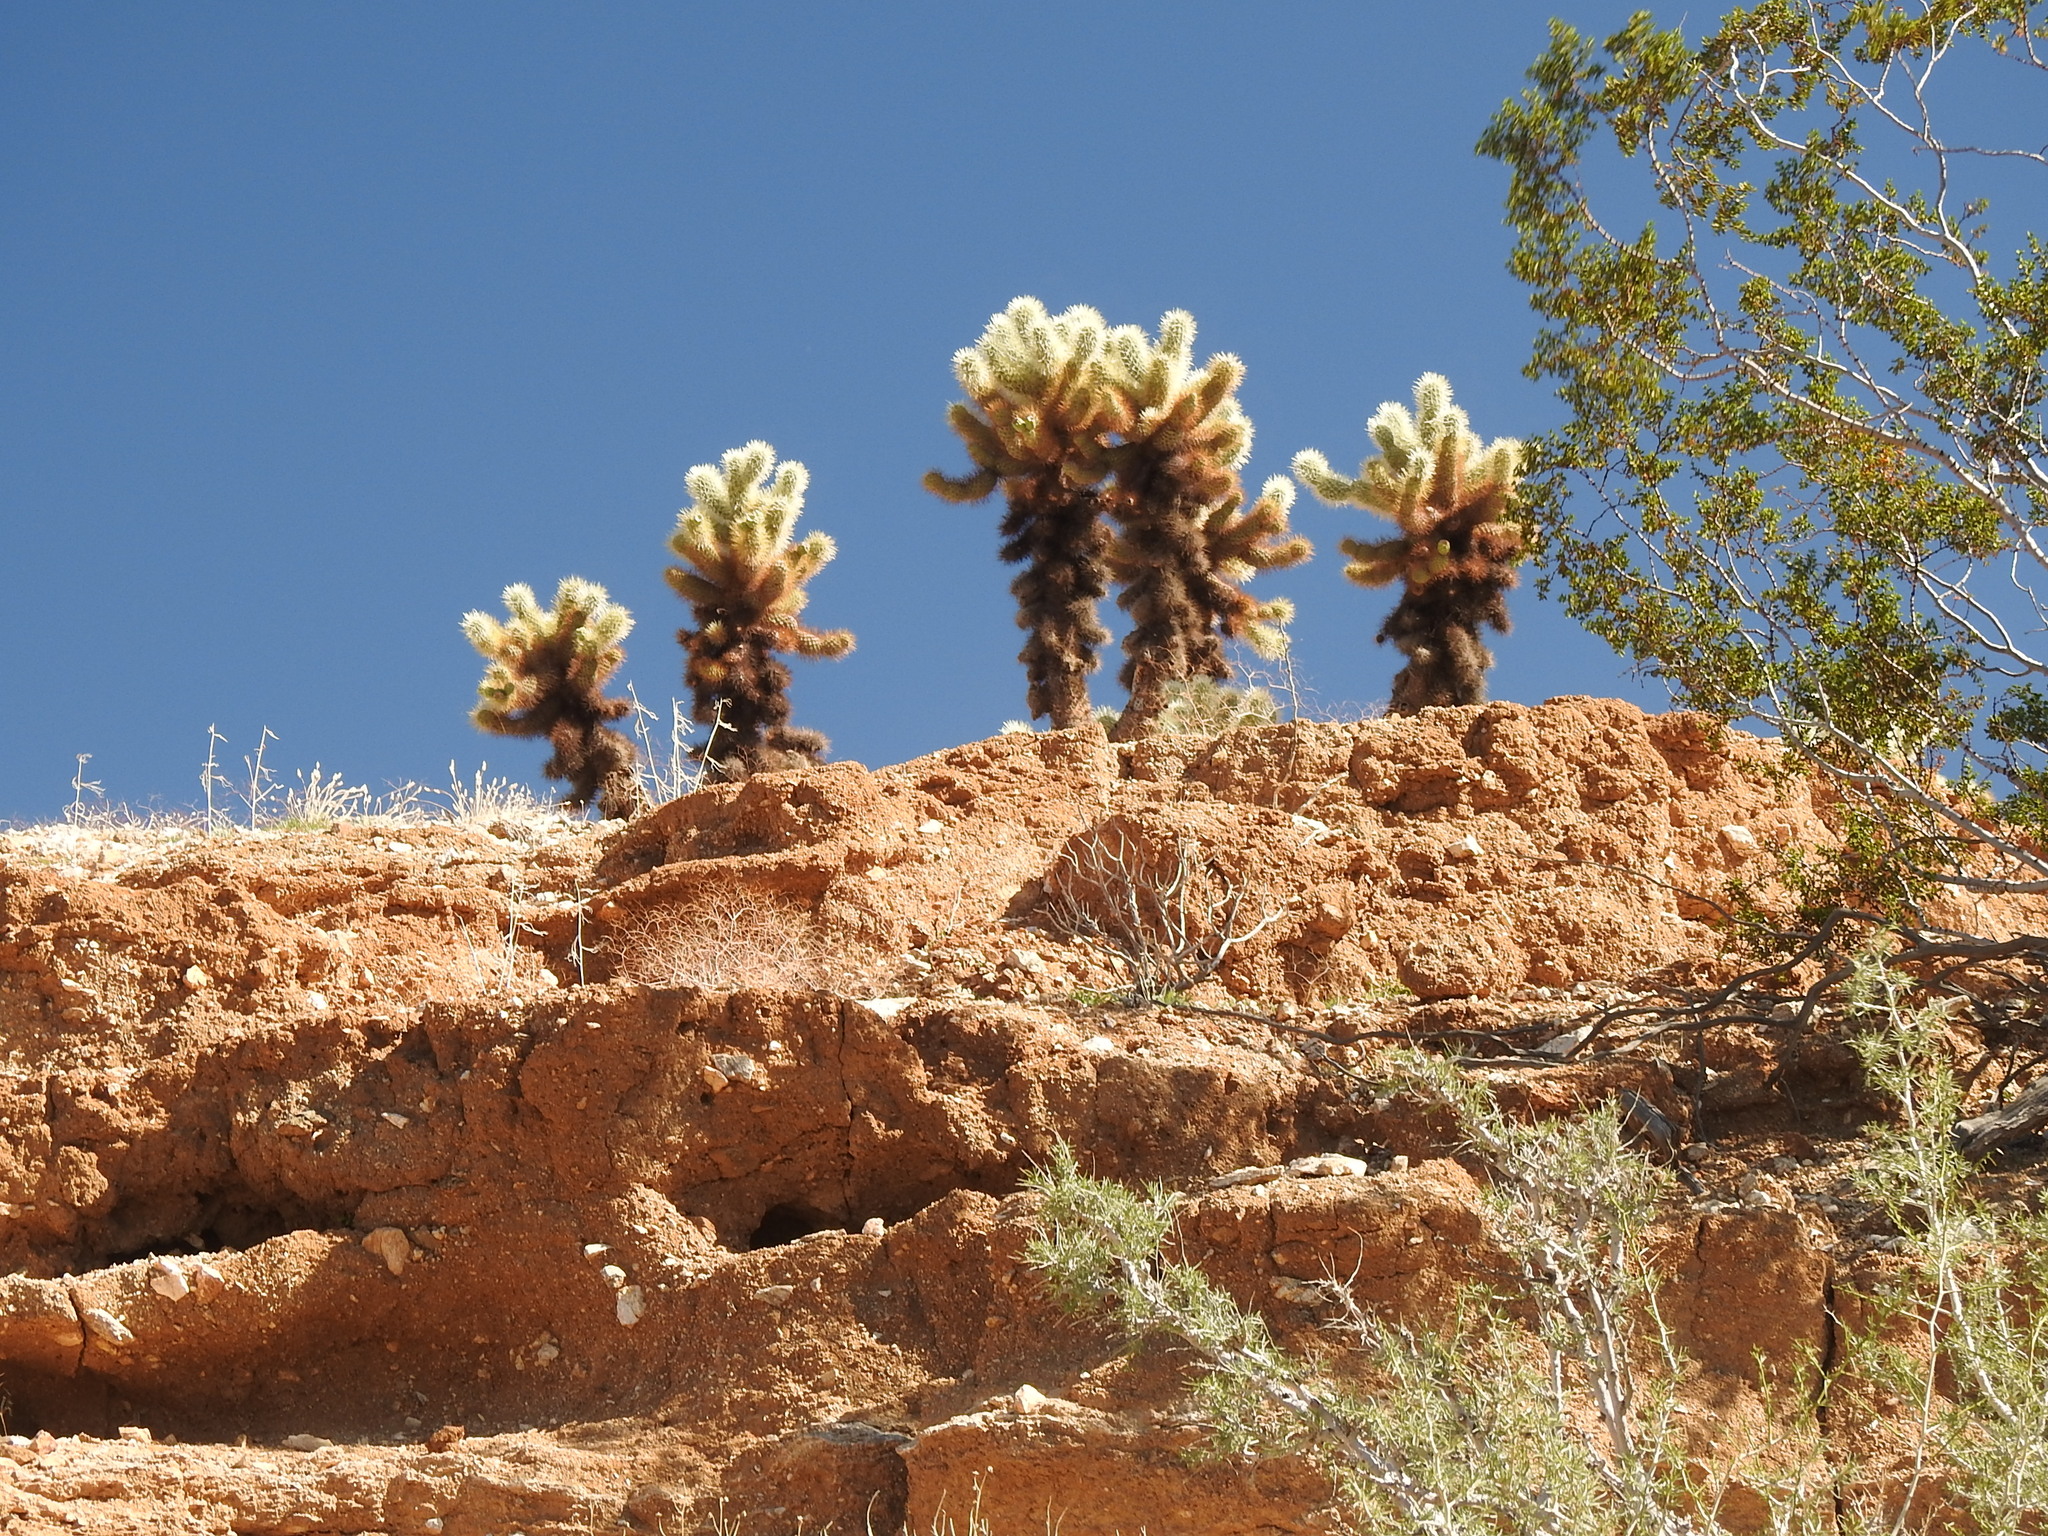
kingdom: Plantae
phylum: Tracheophyta
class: Magnoliopsida
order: Caryophyllales
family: Cactaceae
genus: Cylindropuntia
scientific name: Cylindropuntia fosbergii
